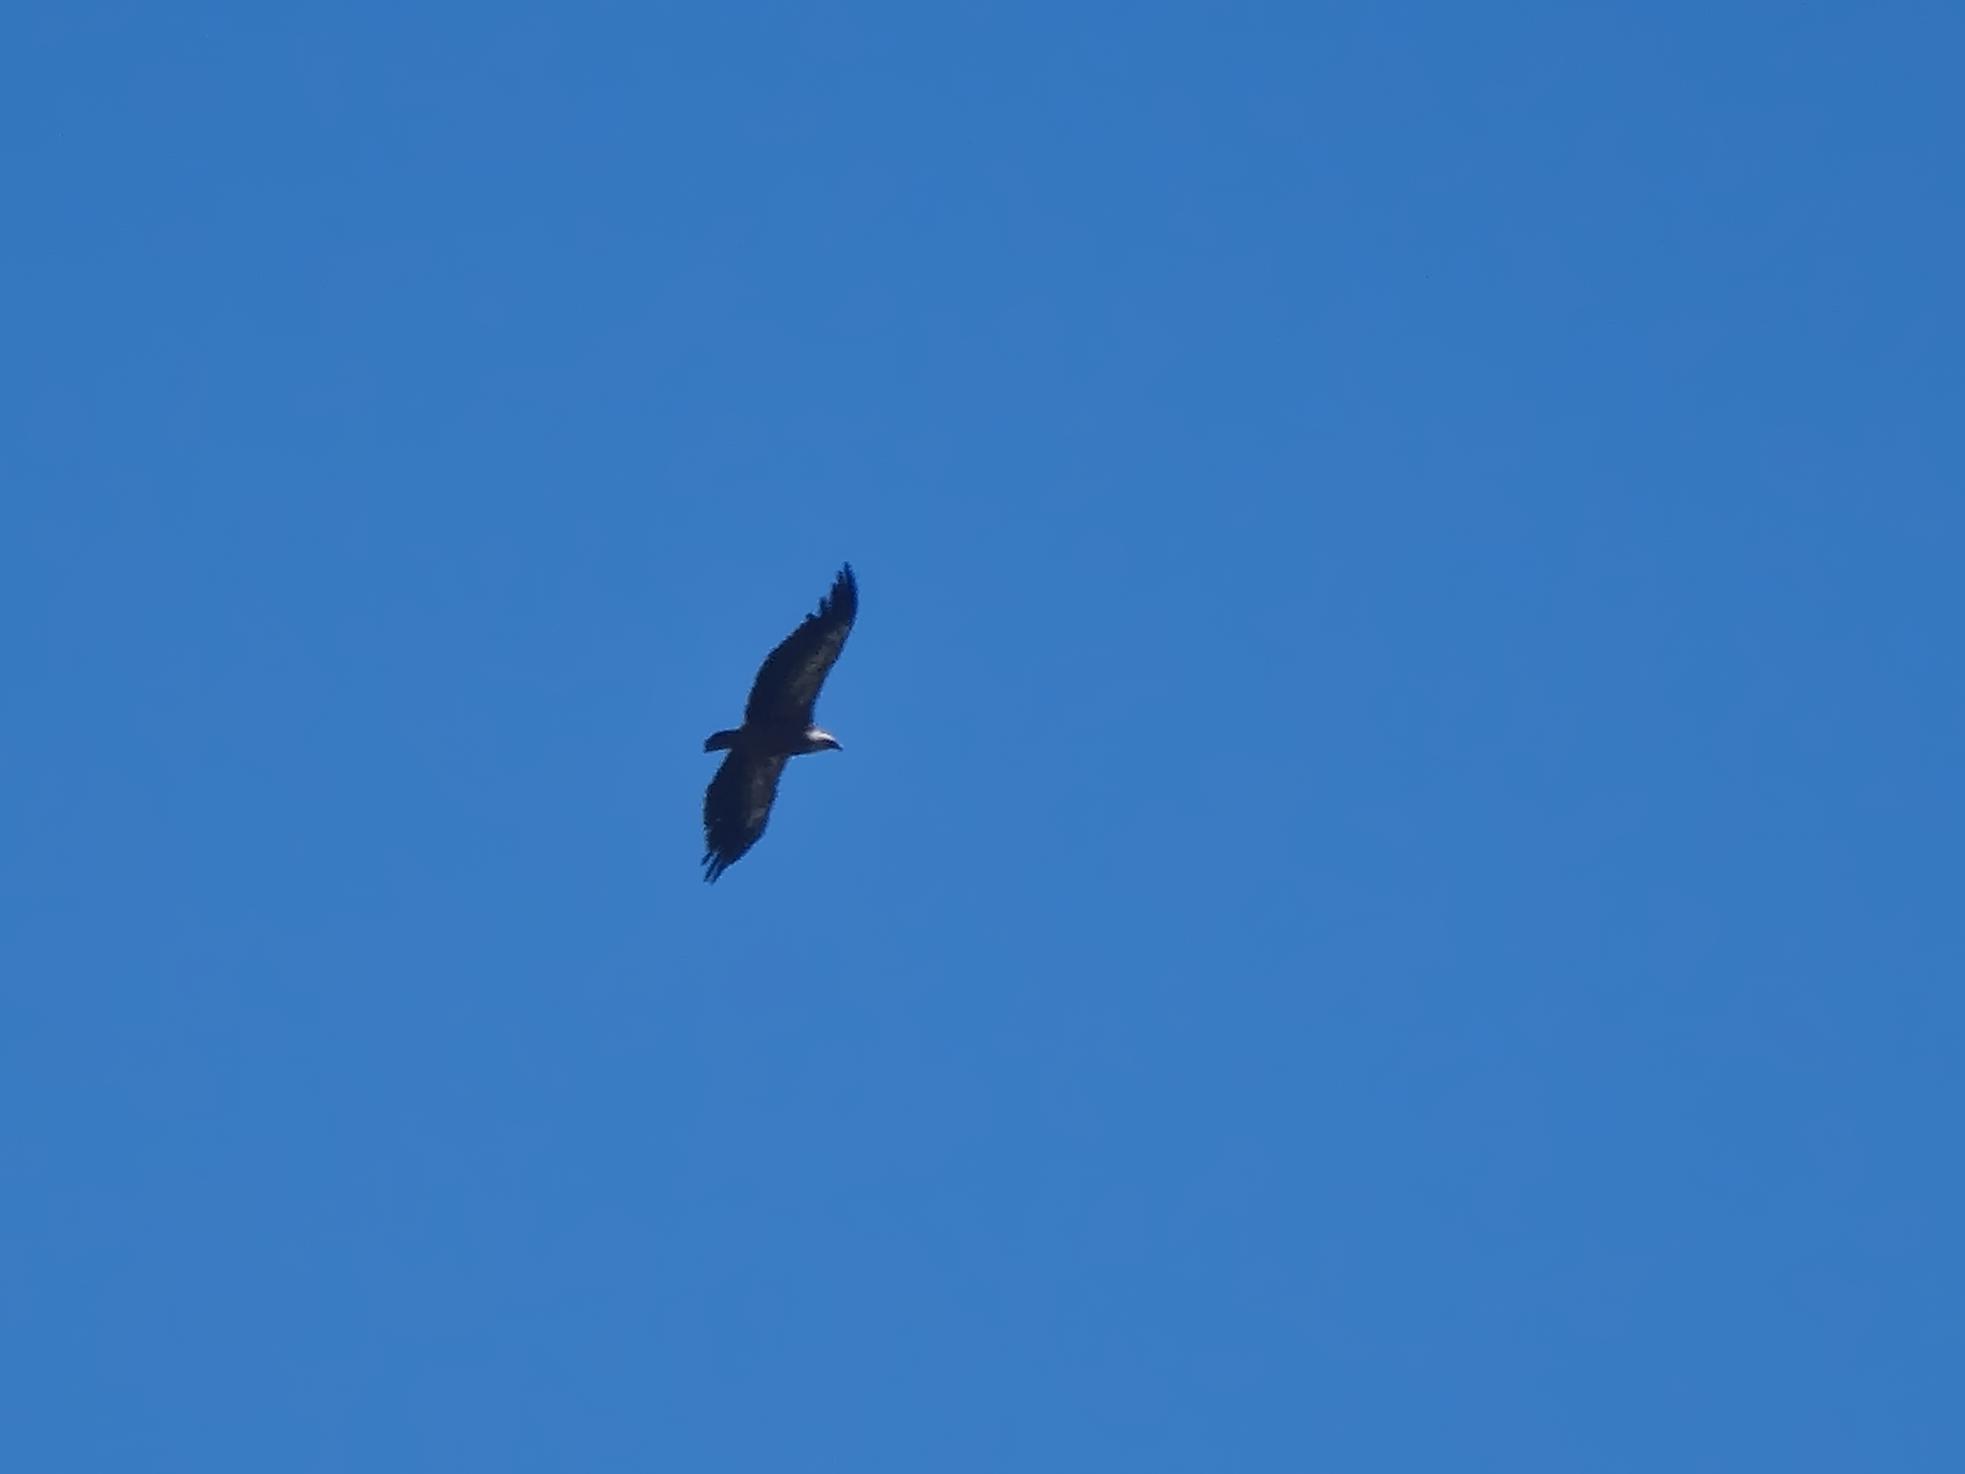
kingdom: Animalia
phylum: Chordata
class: Aves
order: Accipitriformes
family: Accipitridae
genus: Gyps
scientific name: Gyps fulvus
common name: Griffon vulture
